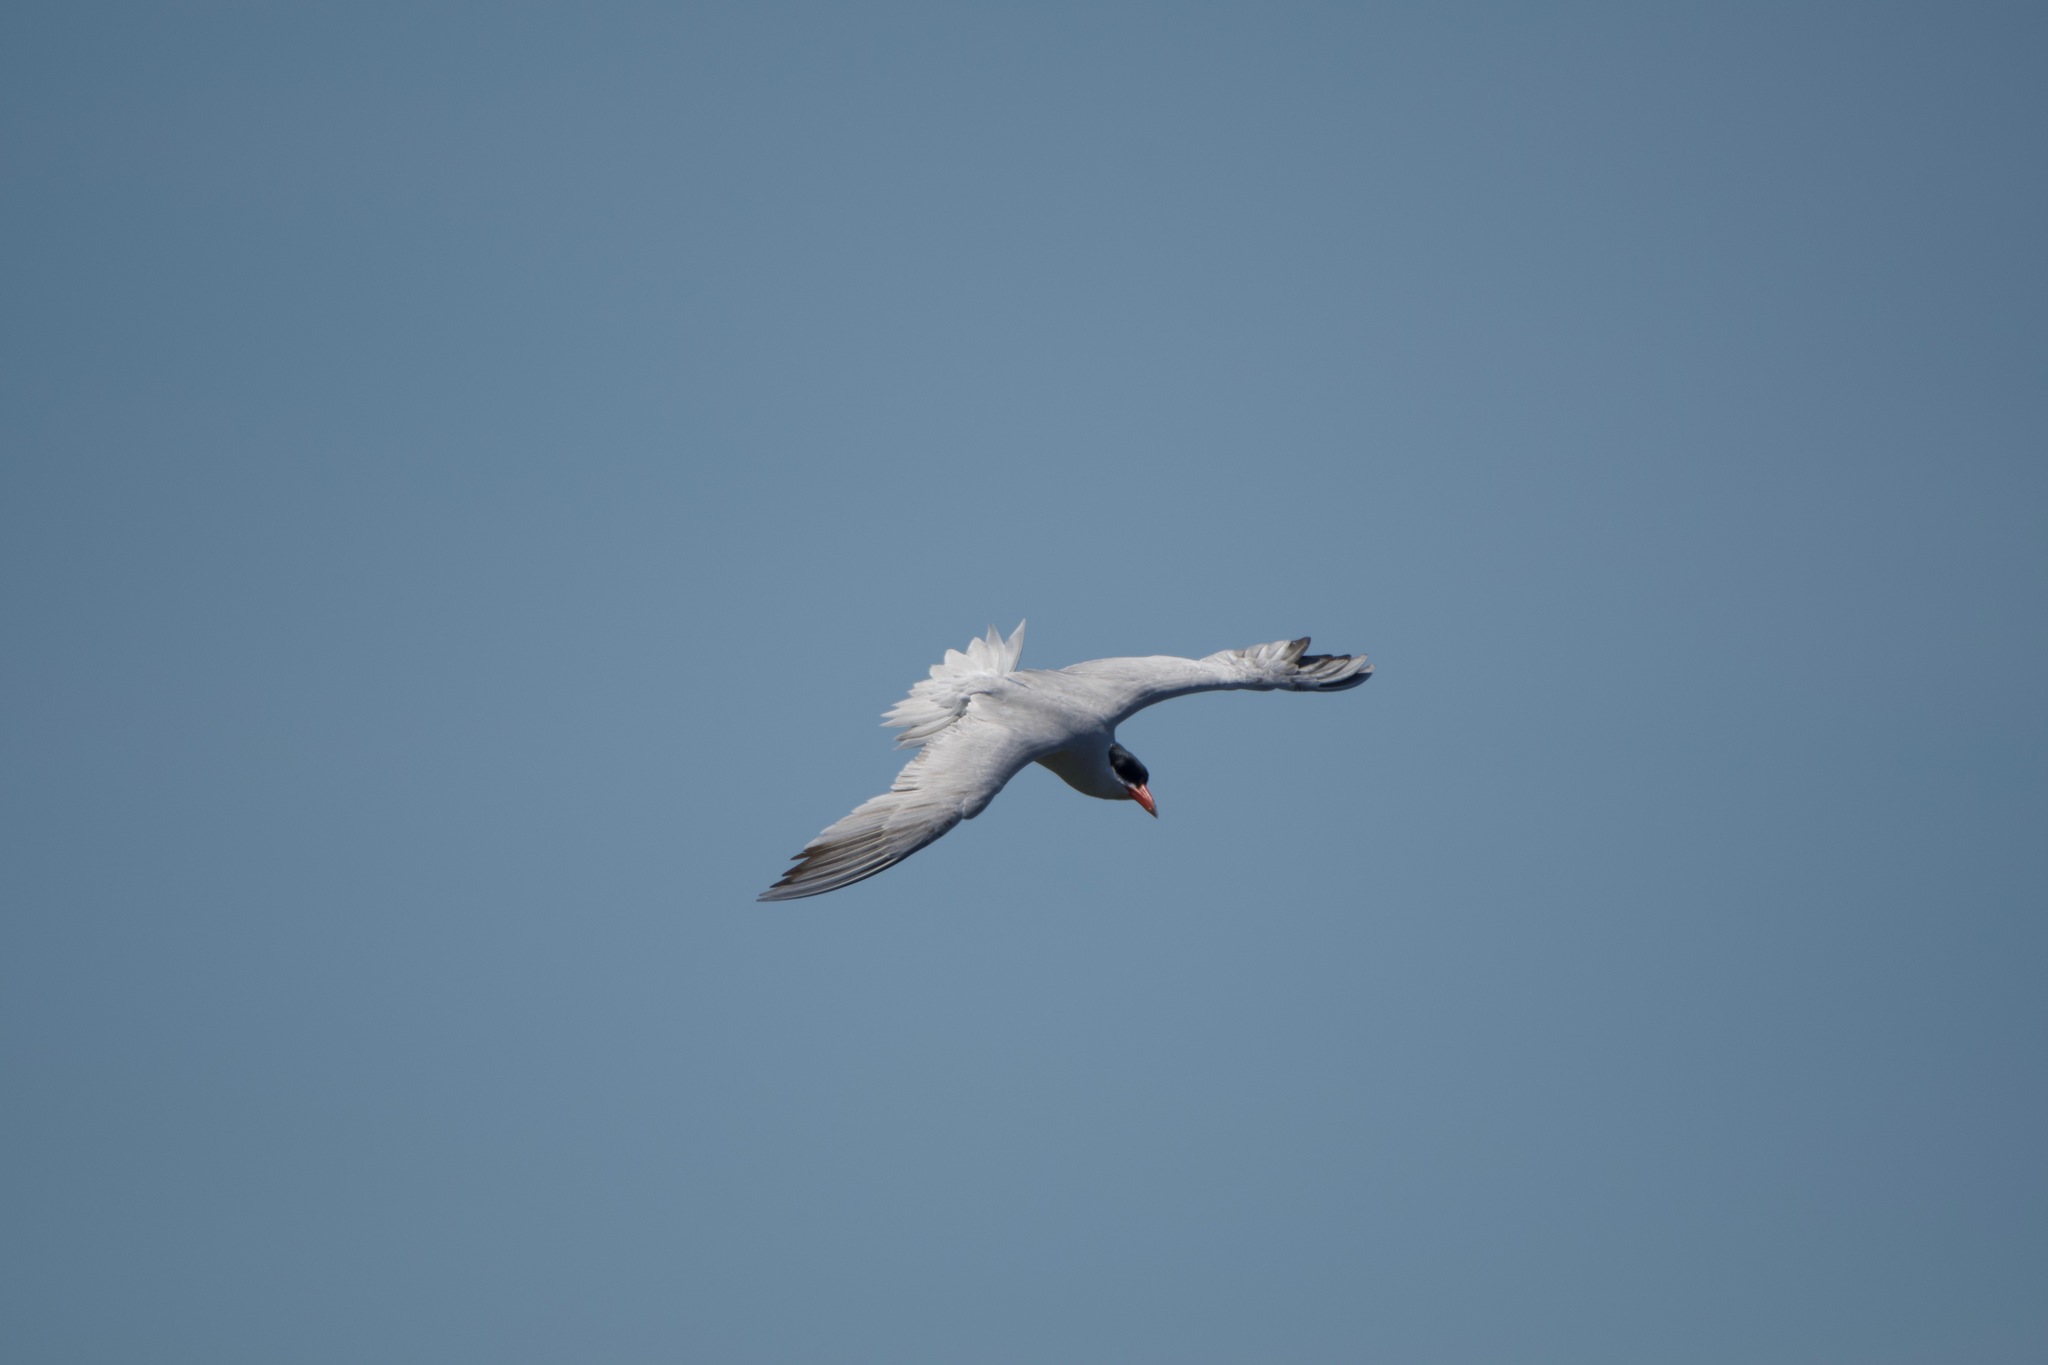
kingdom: Animalia
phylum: Chordata
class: Aves
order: Charadriiformes
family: Laridae
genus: Hydroprogne
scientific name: Hydroprogne caspia
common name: Caspian tern
